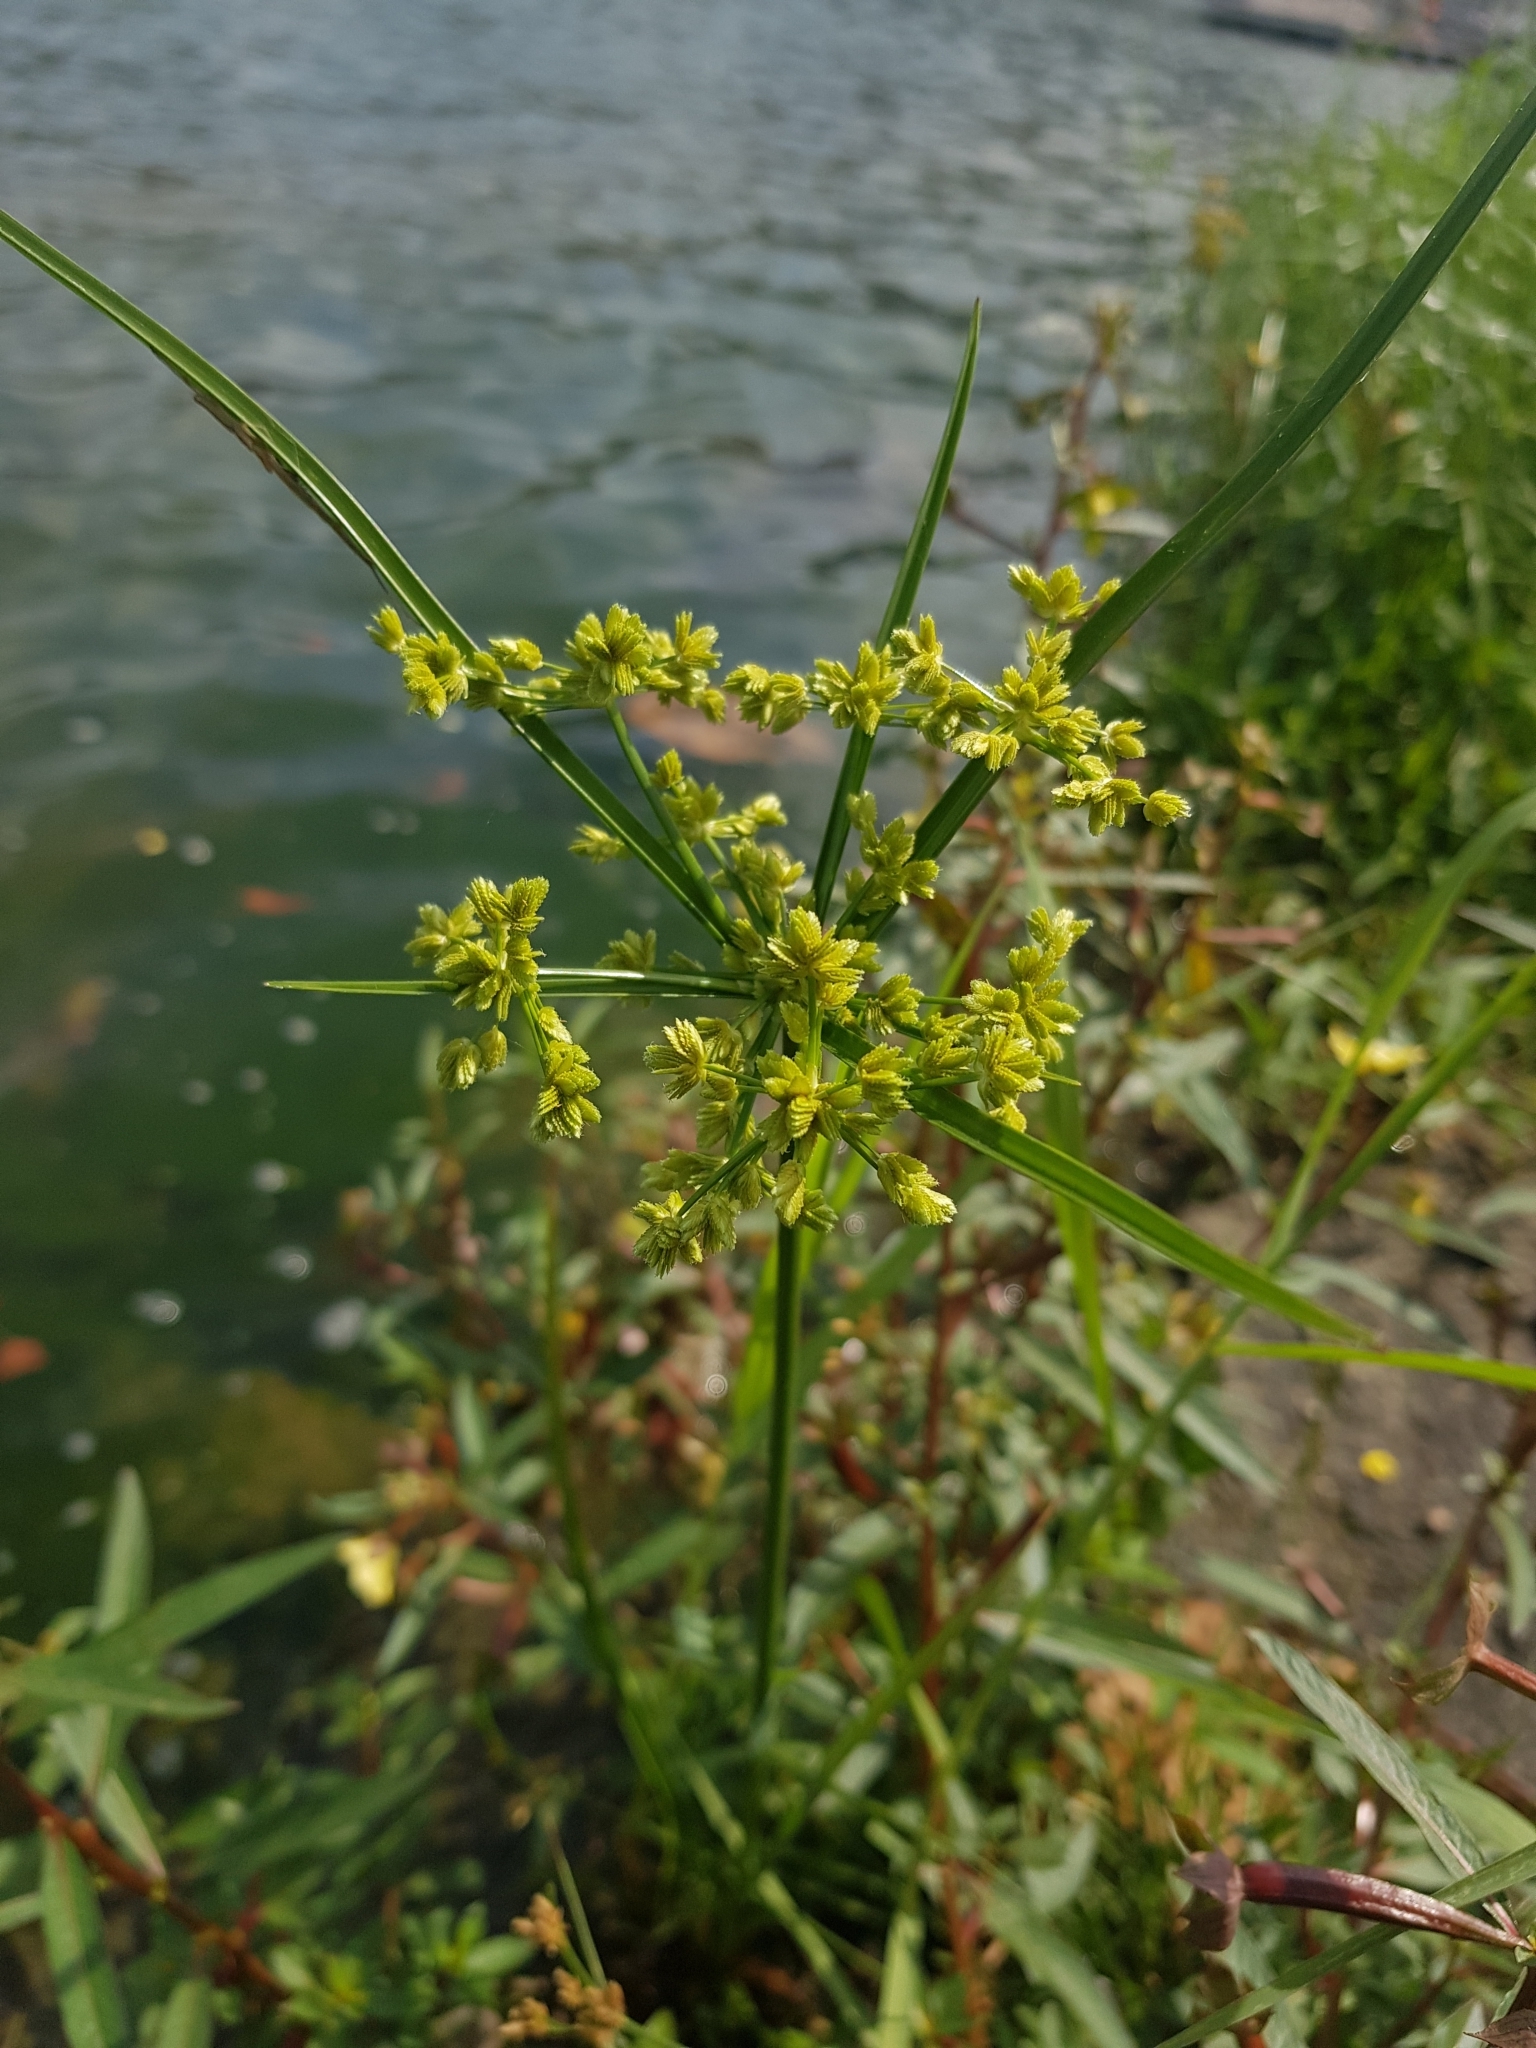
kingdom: Plantae
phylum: Tracheophyta
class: Liliopsida
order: Poales
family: Cyperaceae
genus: Cyperus
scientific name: Cyperus surinamensis
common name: Tropical flat sedge
